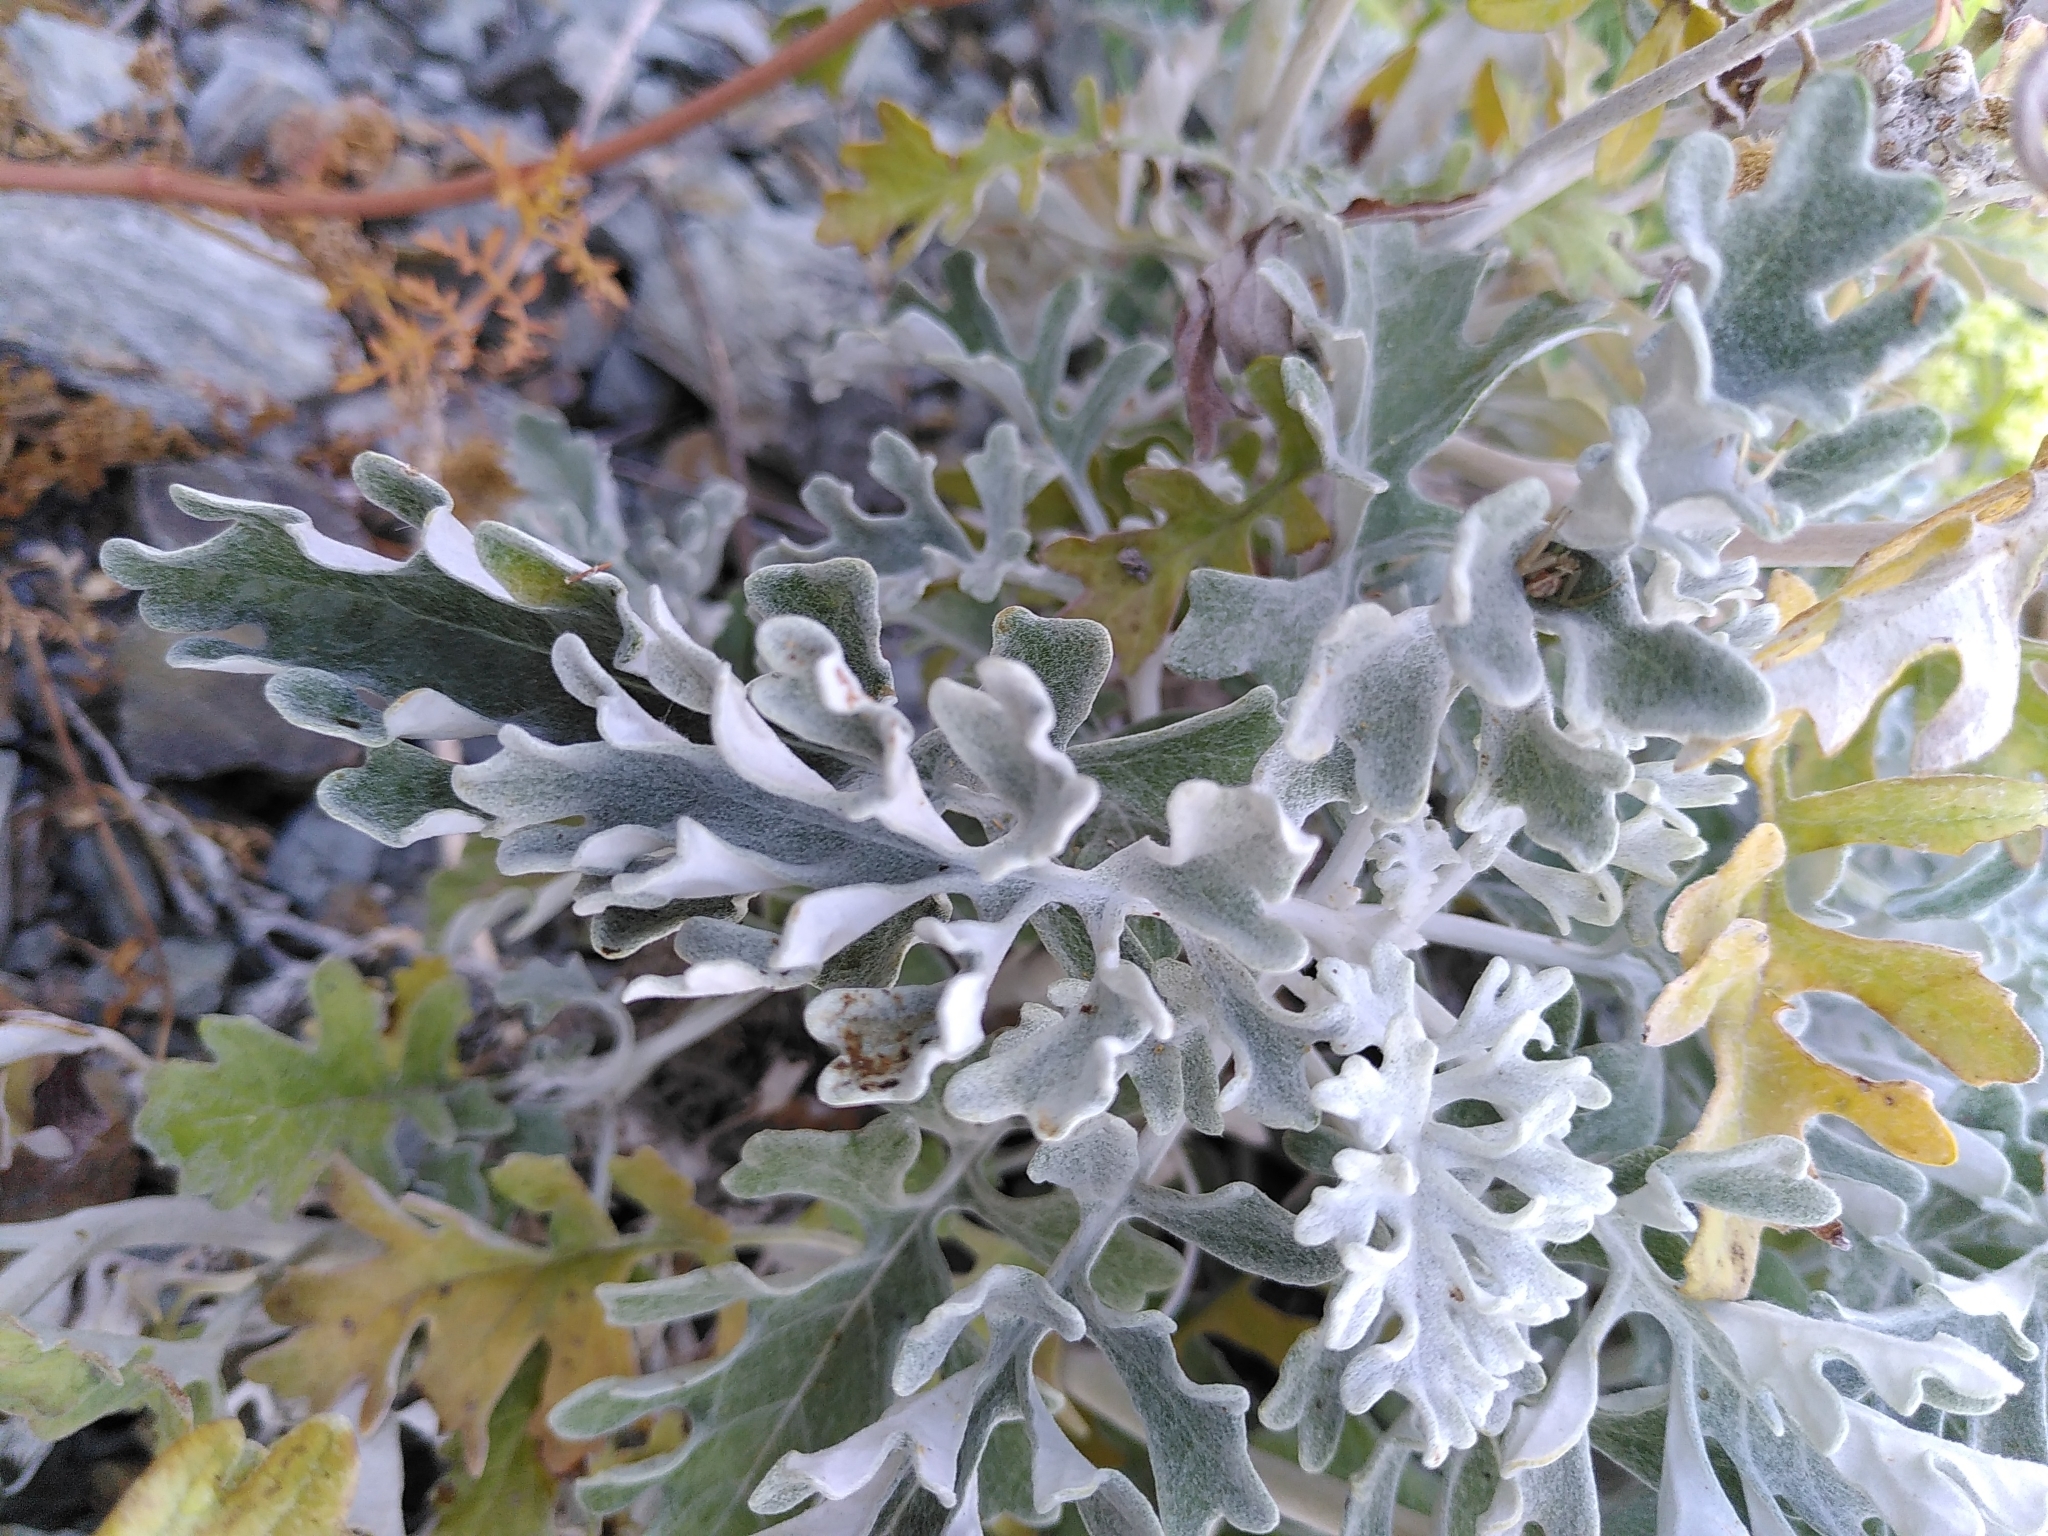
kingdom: Plantae
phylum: Tracheophyta
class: Magnoliopsida
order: Asterales
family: Asteraceae
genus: Jacobaea
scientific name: Jacobaea maritima
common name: Silver ragwort
